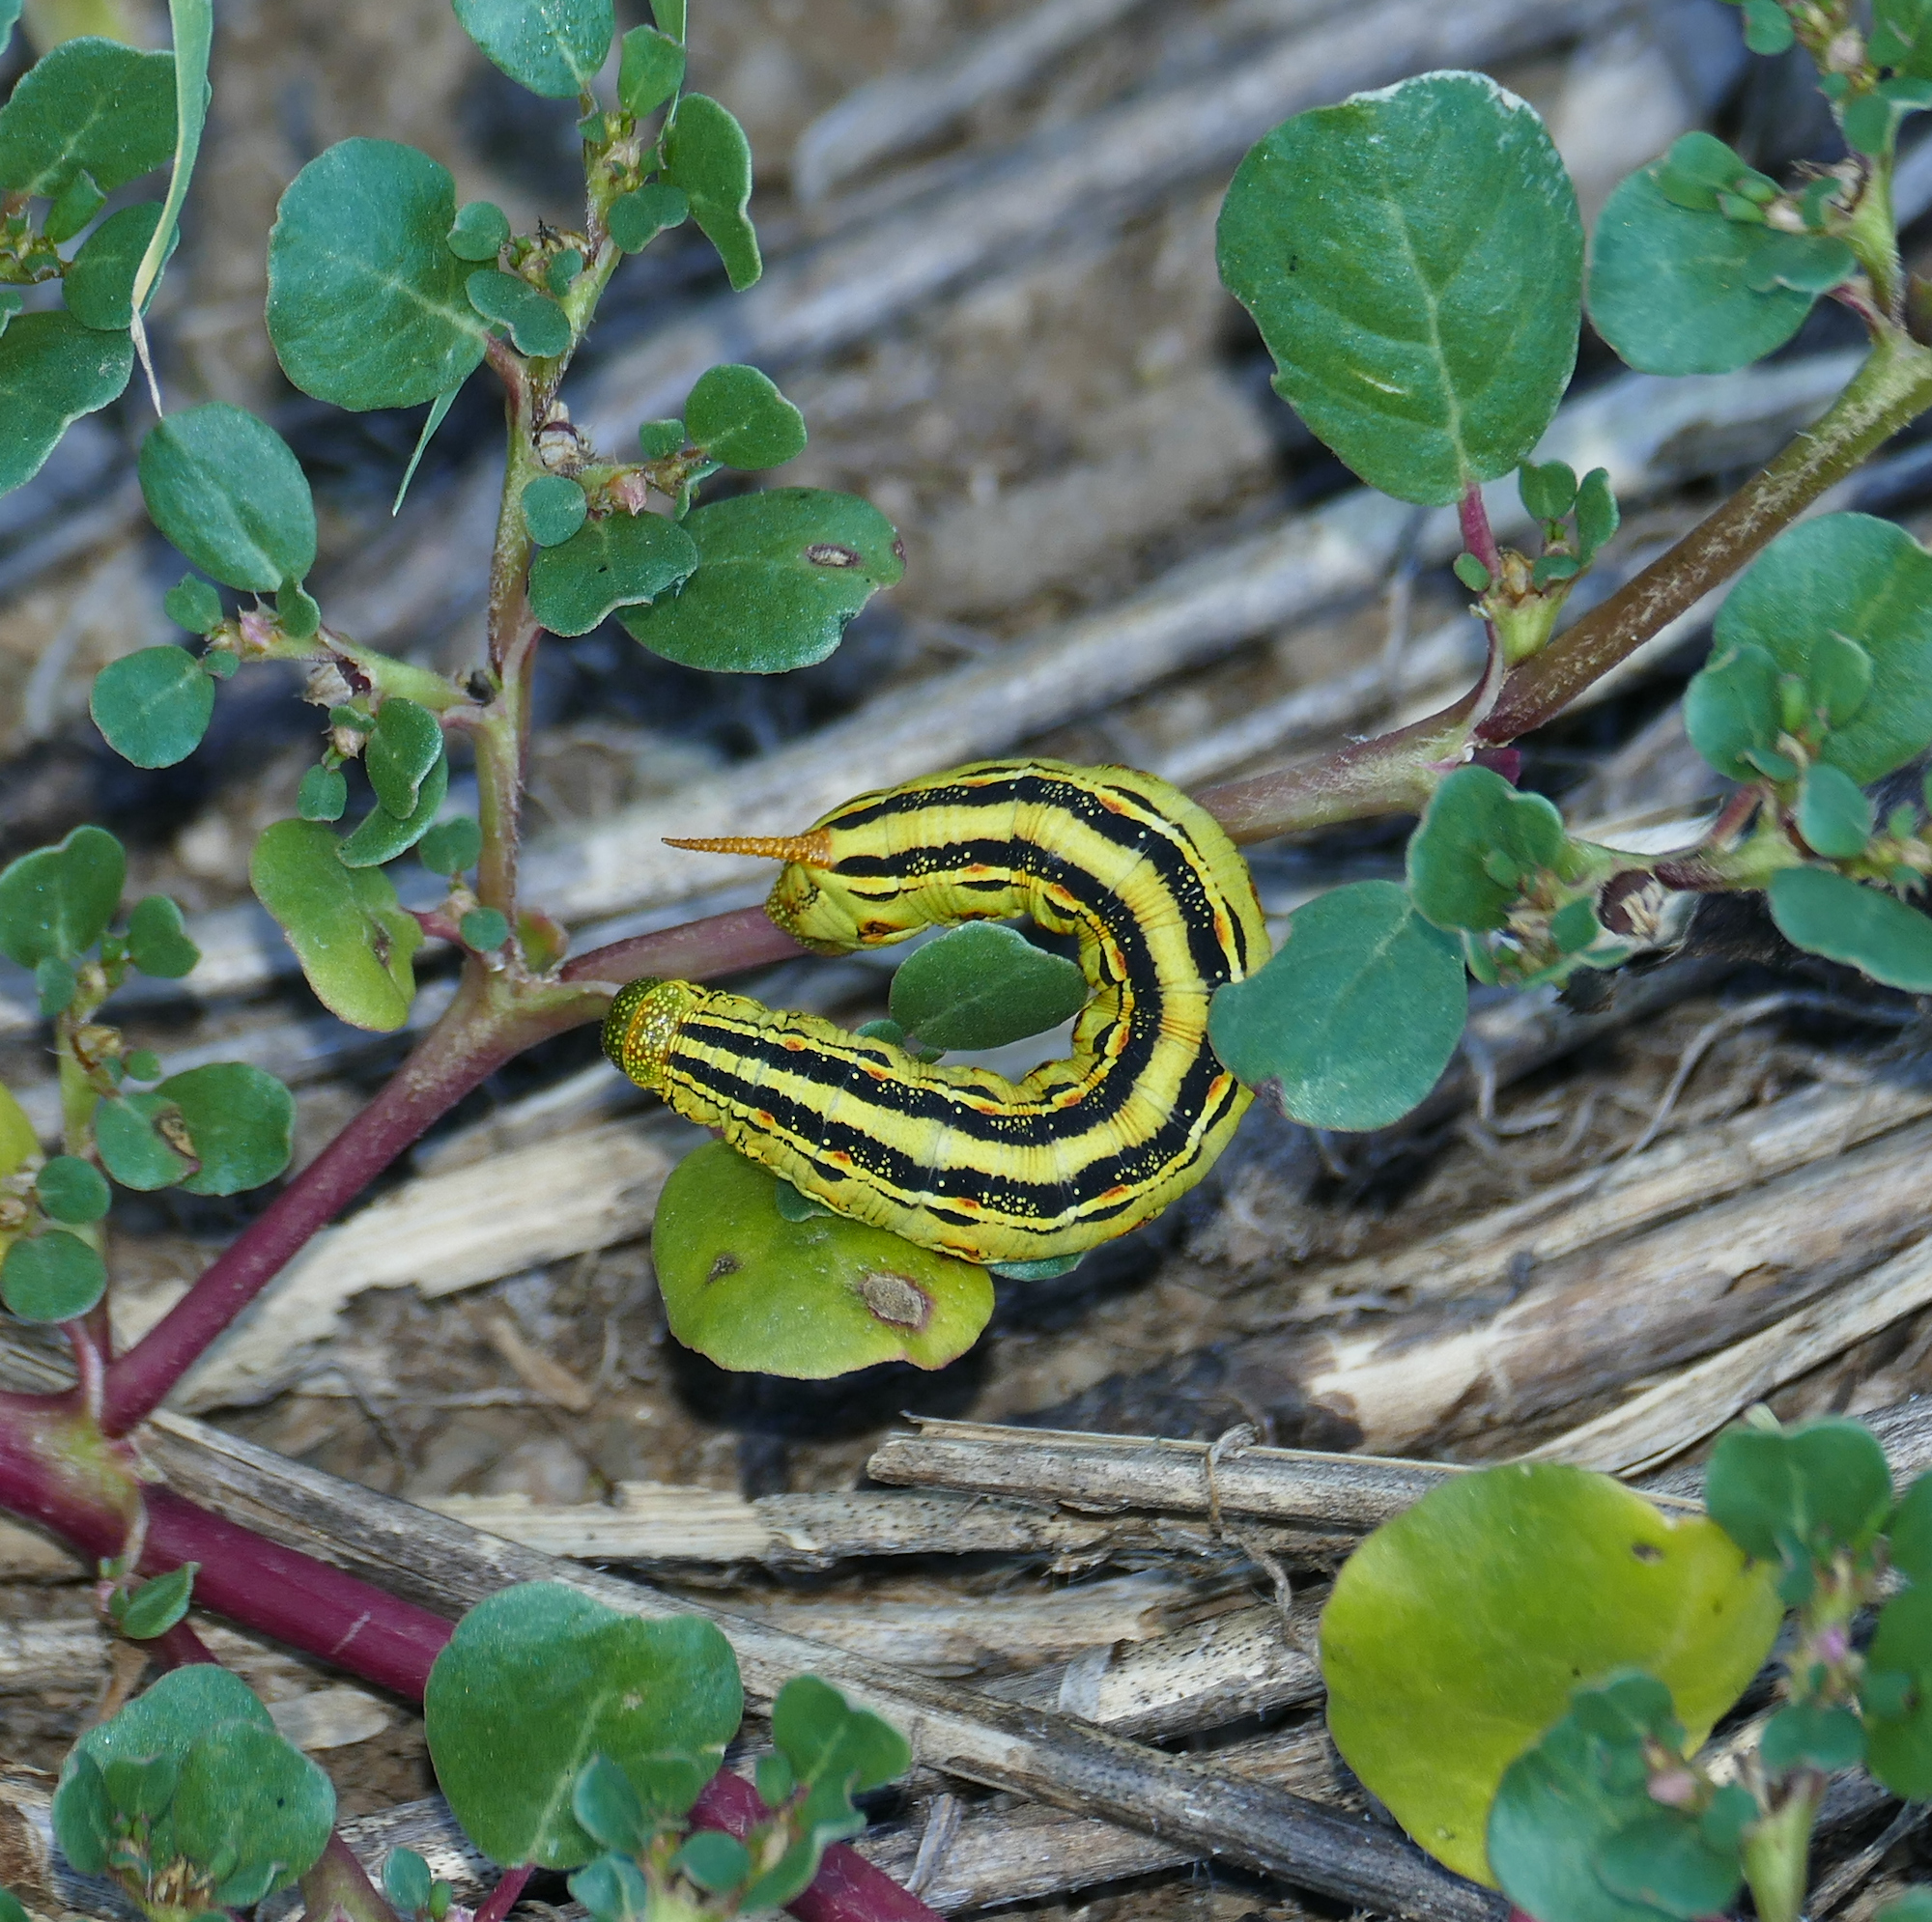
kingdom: Animalia
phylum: Arthropoda
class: Insecta
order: Lepidoptera
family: Sphingidae
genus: Hyles
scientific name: Hyles lineata
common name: White-lined sphinx
